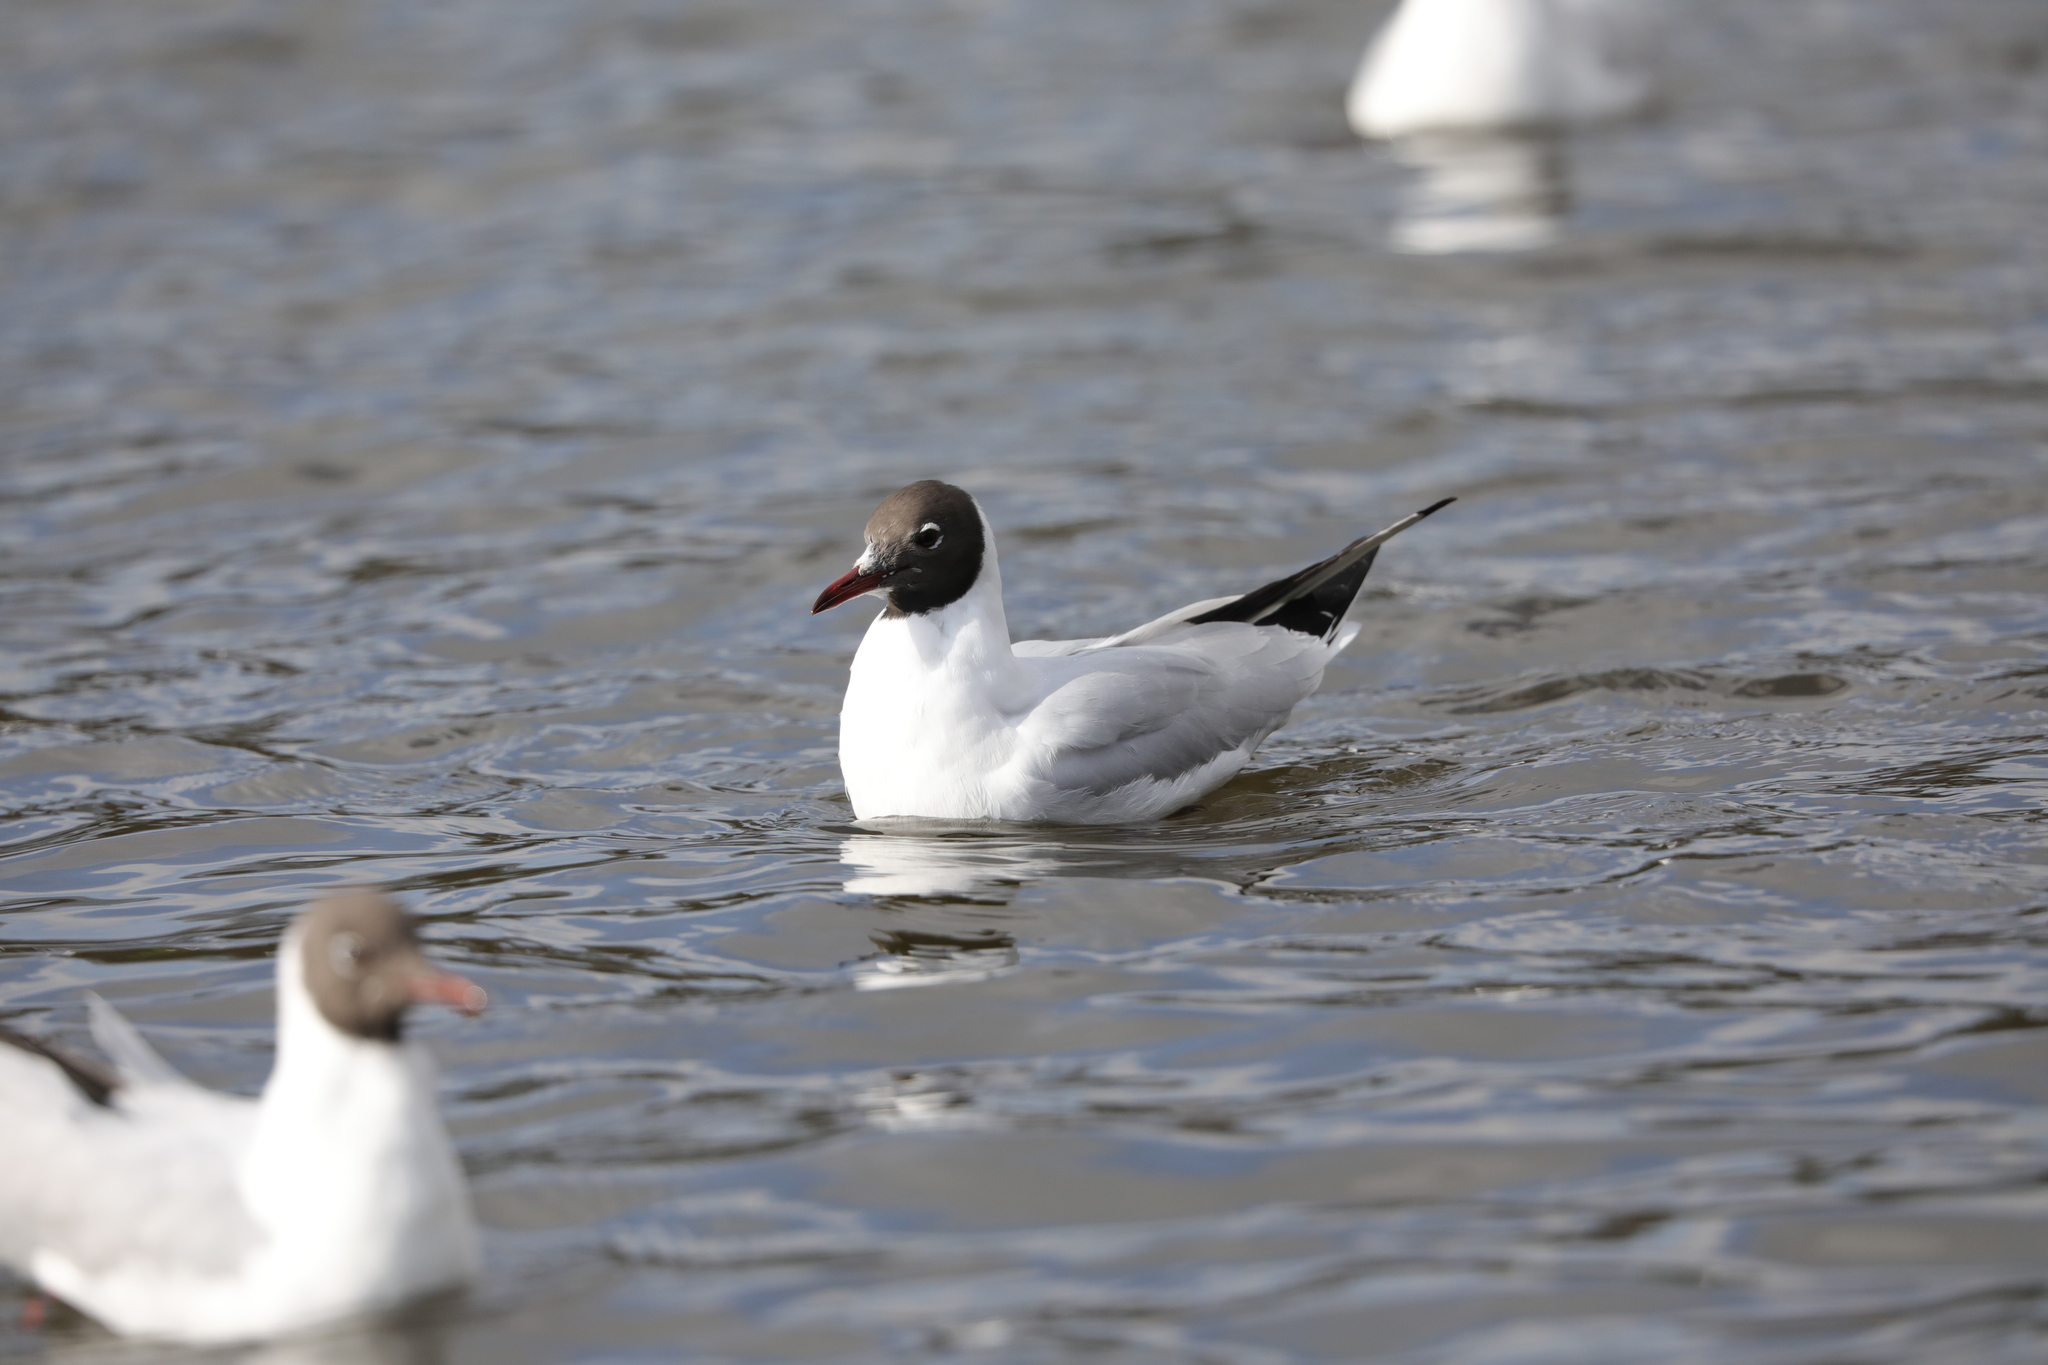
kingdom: Animalia
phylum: Chordata
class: Aves
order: Charadriiformes
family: Laridae
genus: Chroicocephalus
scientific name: Chroicocephalus ridibundus
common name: Black-headed gull
